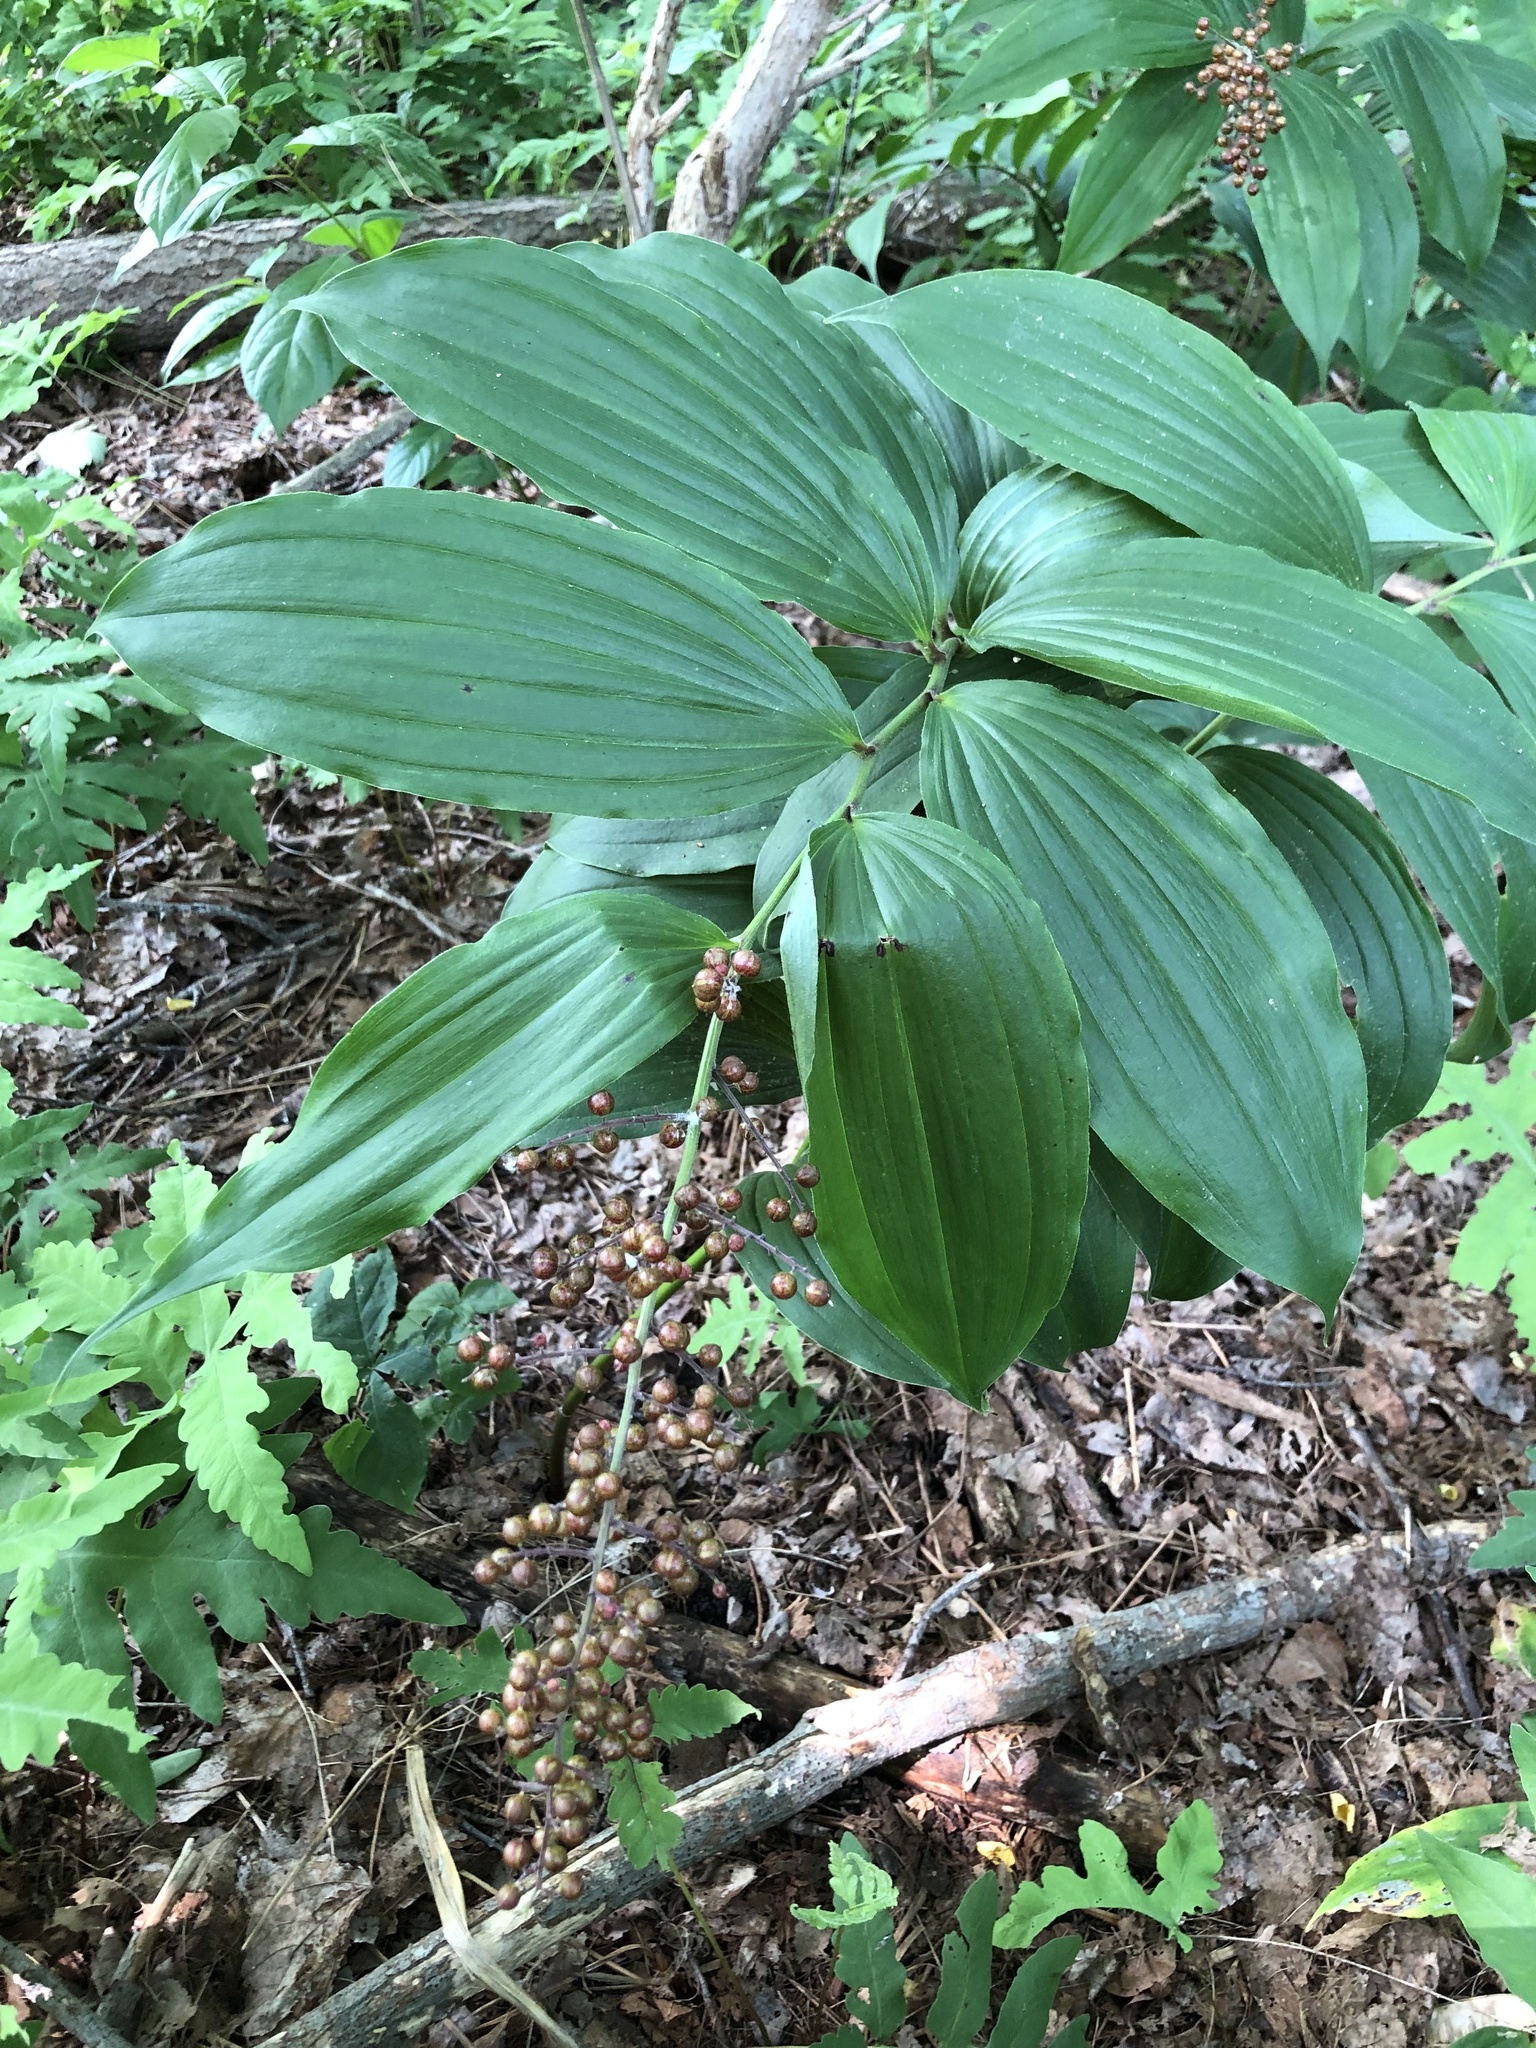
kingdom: Plantae
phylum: Tracheophyta
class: Liliopsida
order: Asparagales
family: Asparagaceae
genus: Maianthemum
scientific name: Maianthemum racemosum
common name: False spikenard
